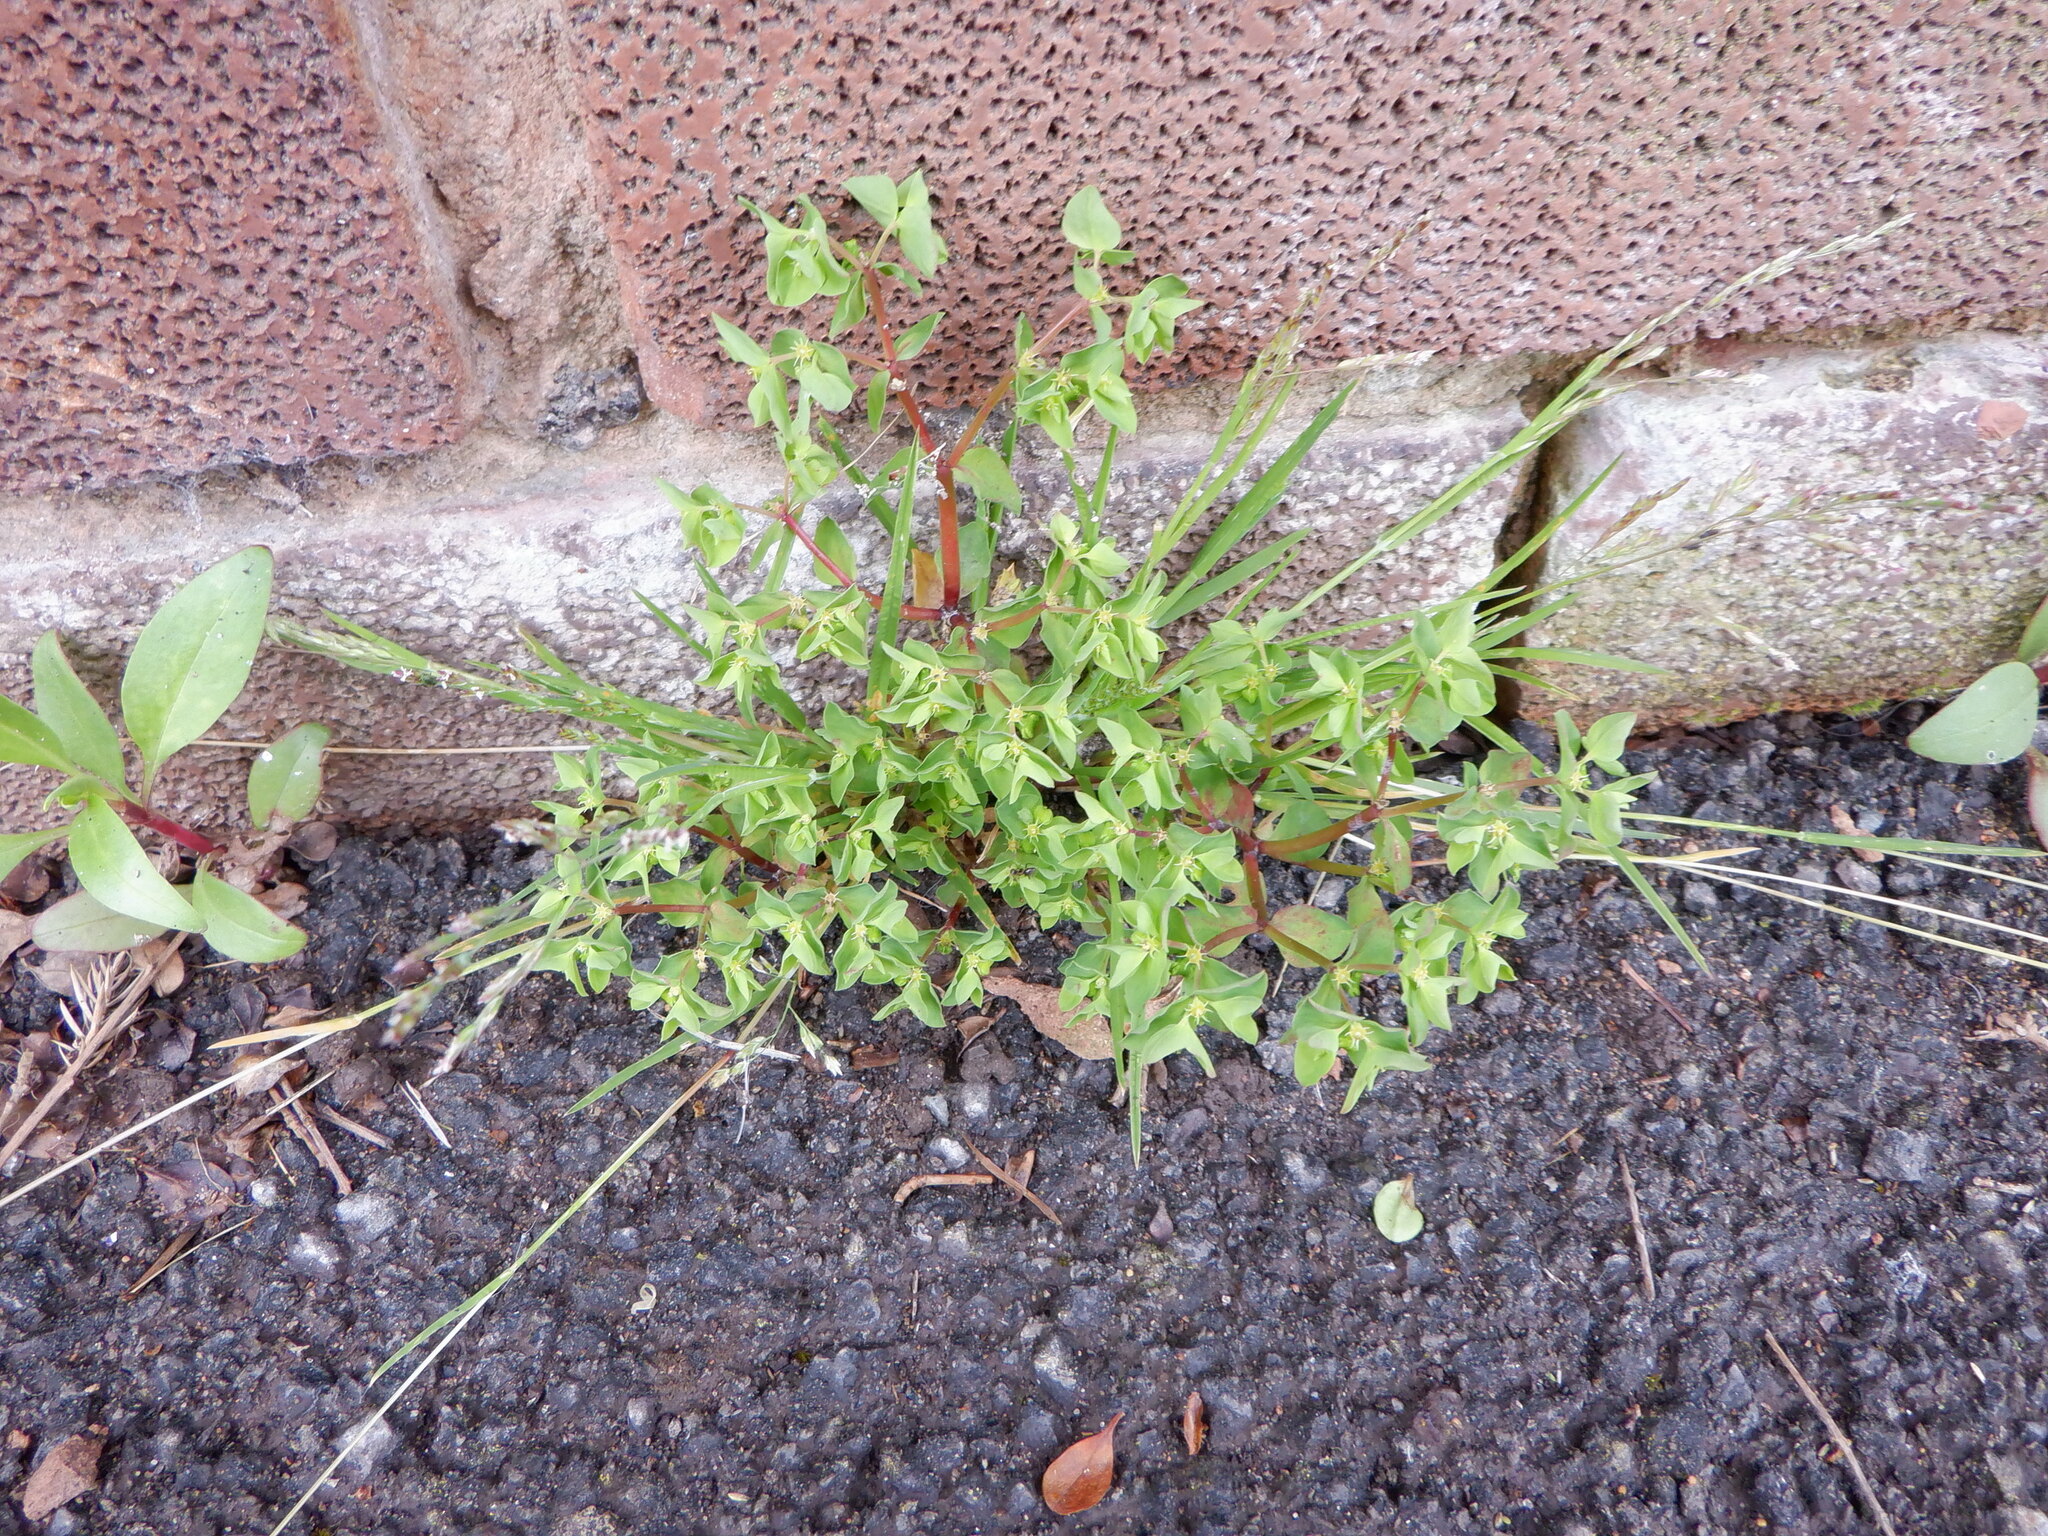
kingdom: Plantae
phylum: Tracheophyta
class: Magnoliopsida
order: Malpighiales
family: Euphorbiaceae
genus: Euphorbia
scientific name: Euphorbia peplus
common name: Petty spurge
